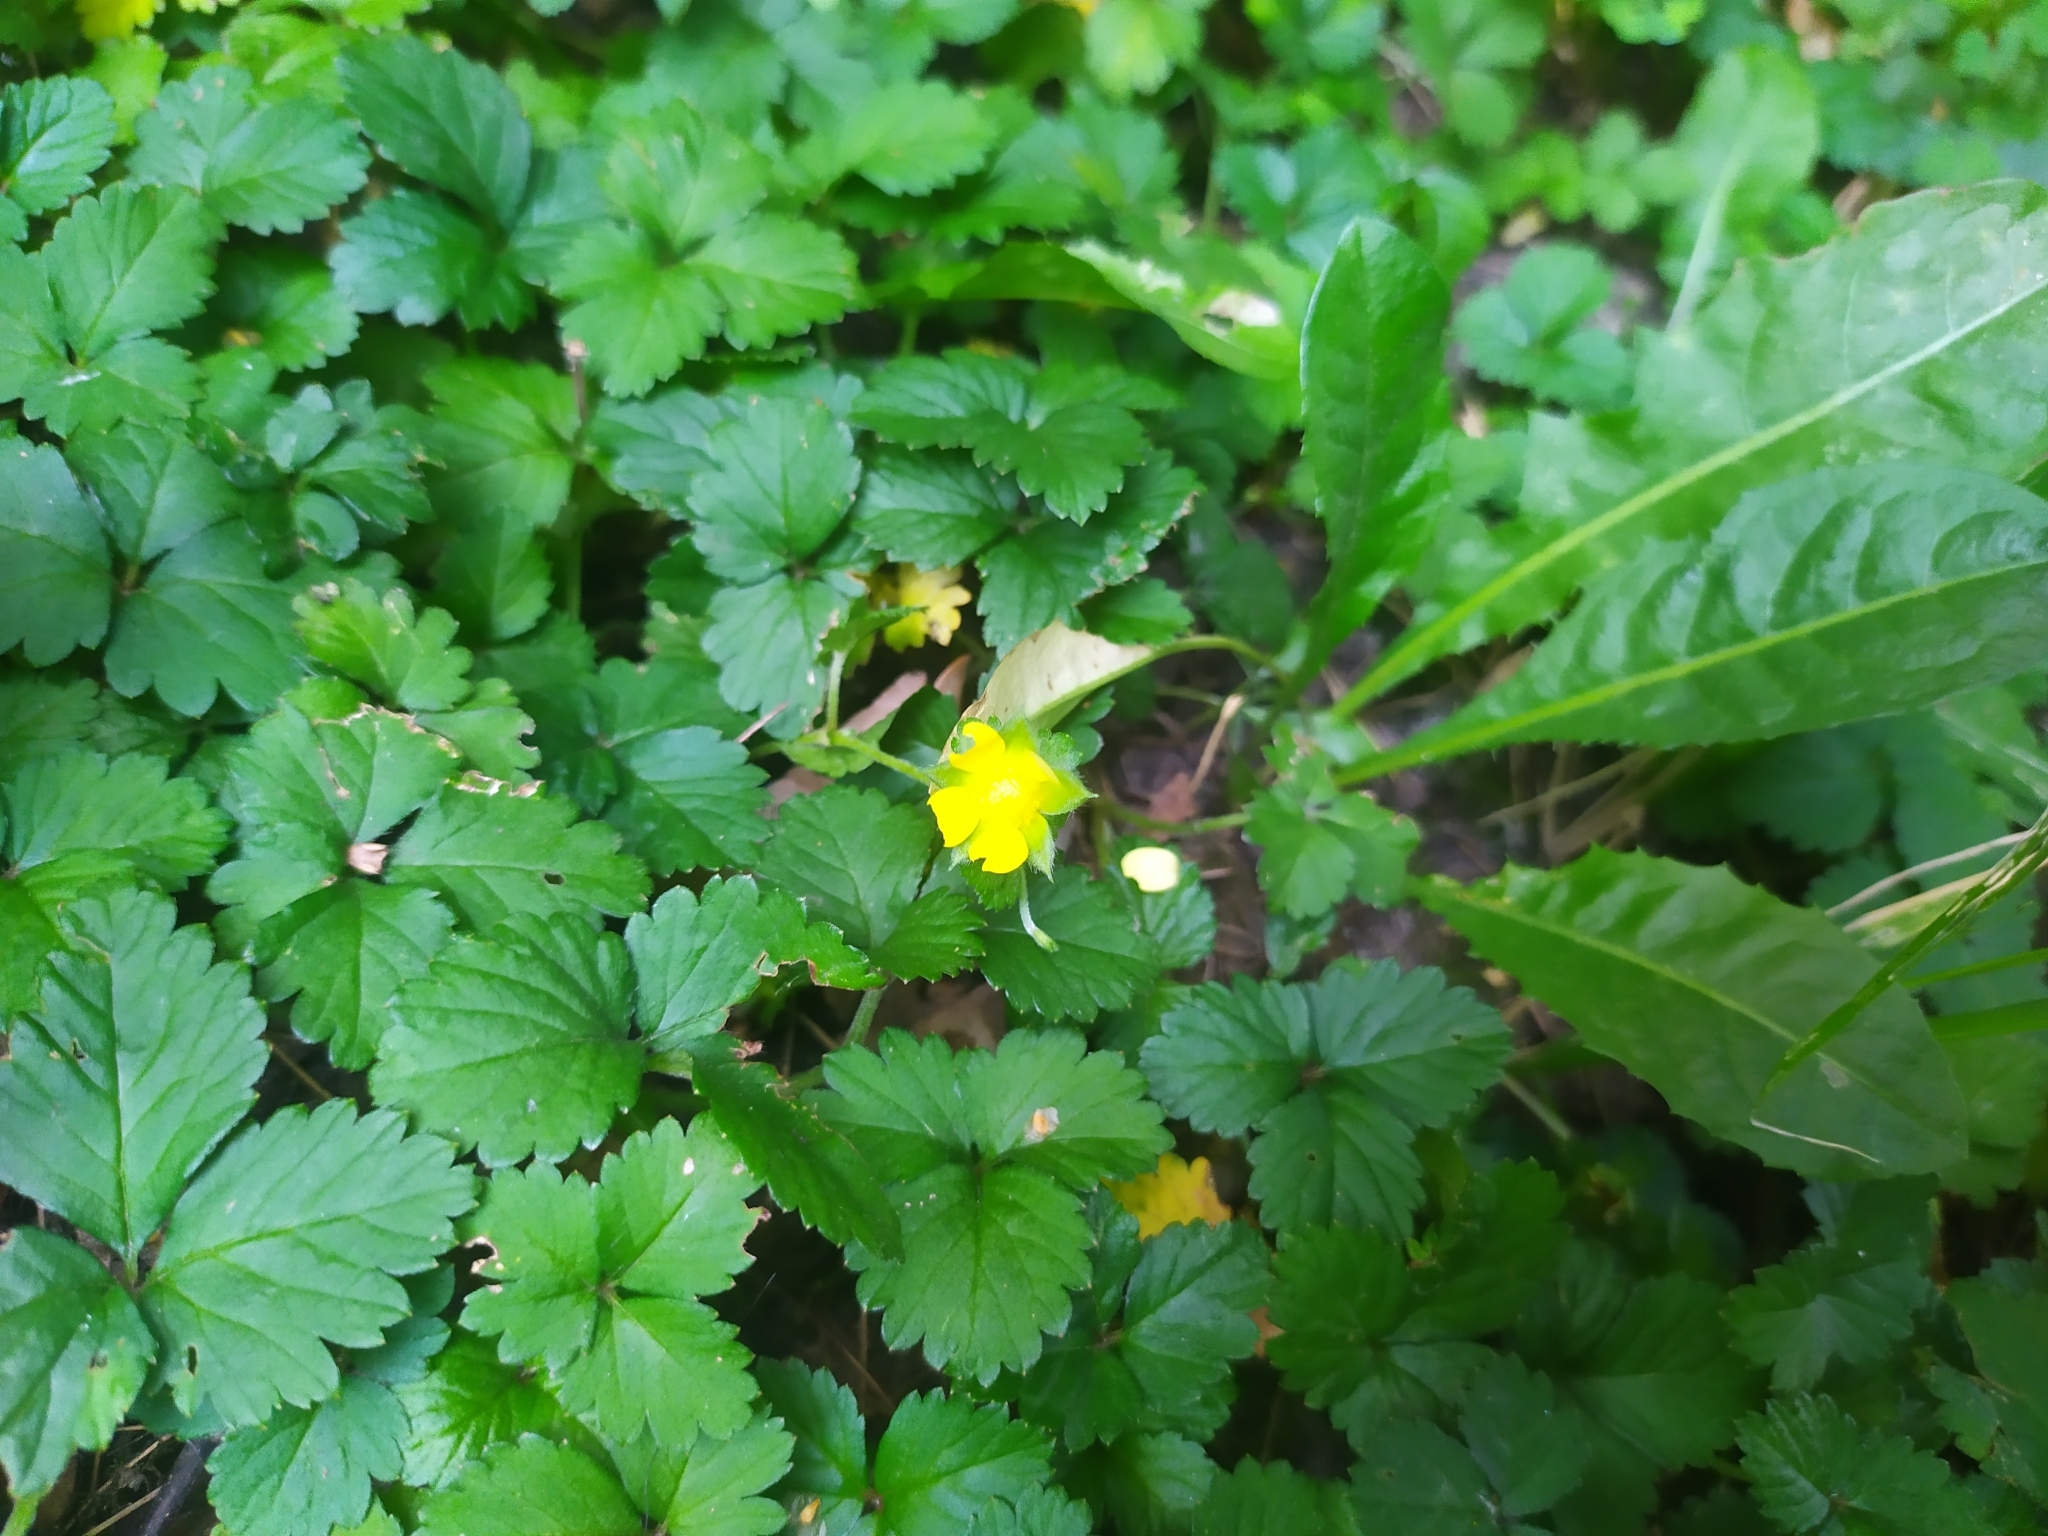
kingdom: Plantae
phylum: Tracheophyta
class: Magnoliopsida
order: Rosales
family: Rosaceae
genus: Potentilla
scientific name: Potentilla indica
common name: Yellow-flowered strawberry
